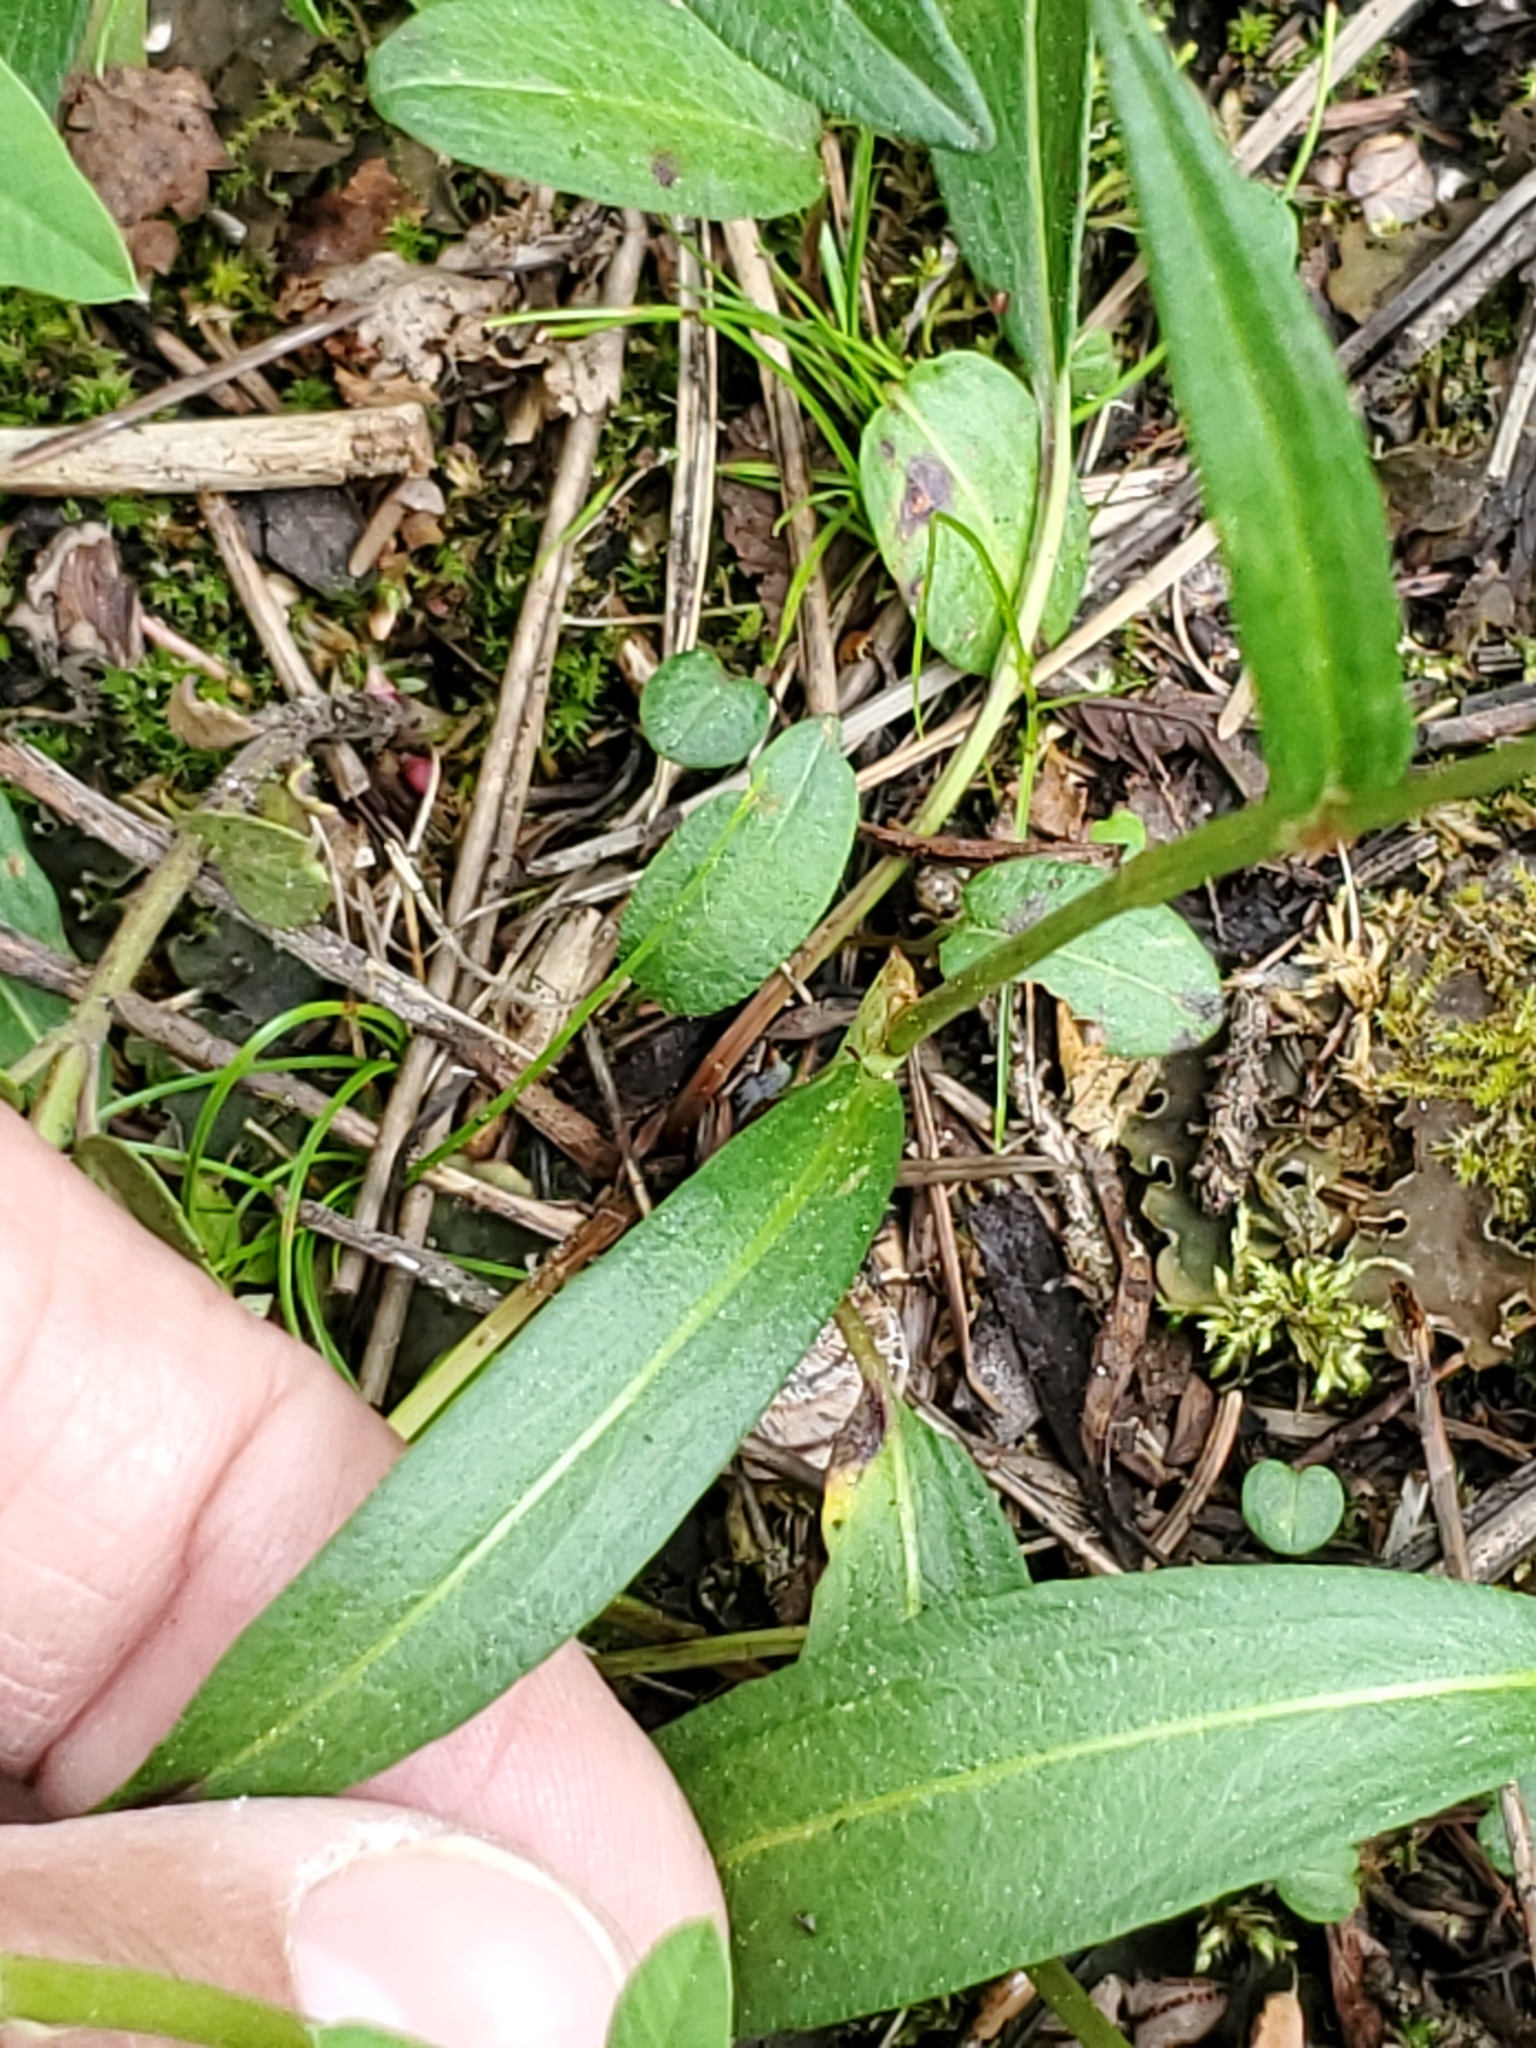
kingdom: Plantae
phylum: Tracheophyta
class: Magnoliopsida
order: Caryophyllales
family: Polygonaceae
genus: Bistorta
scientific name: Bistorta vivipara
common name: Alpine bistort
